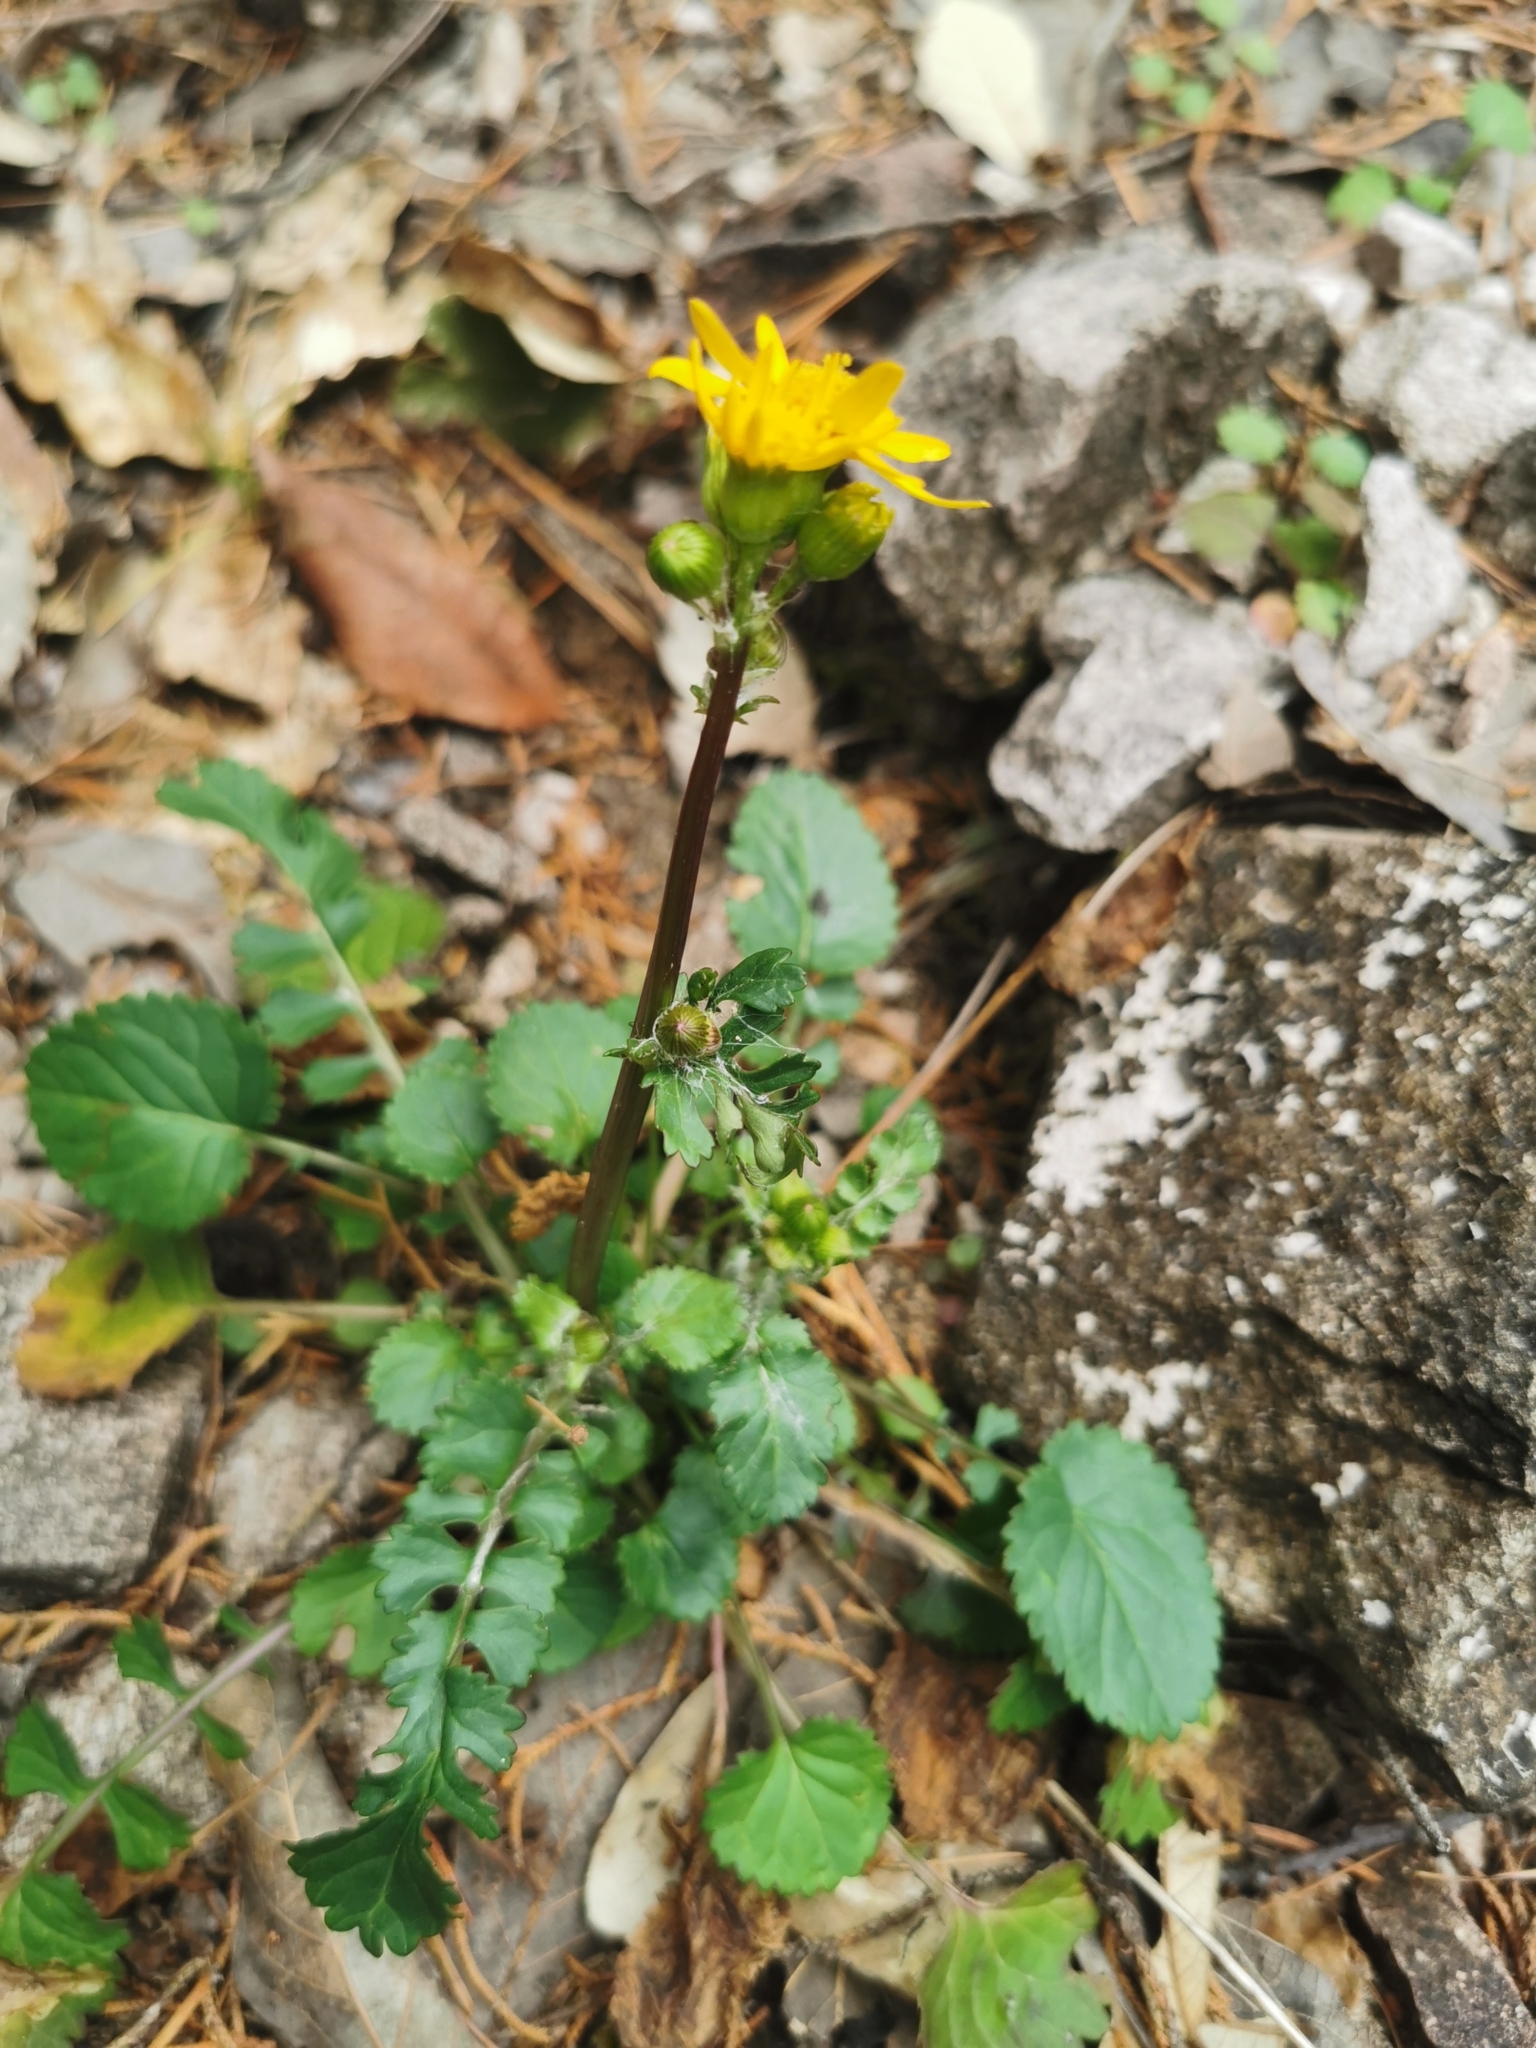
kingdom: Plantae
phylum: Tracheophyta
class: Magnoliopsida
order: Asterales
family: Asteraceae
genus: Packera
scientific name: Packera quebradensis
